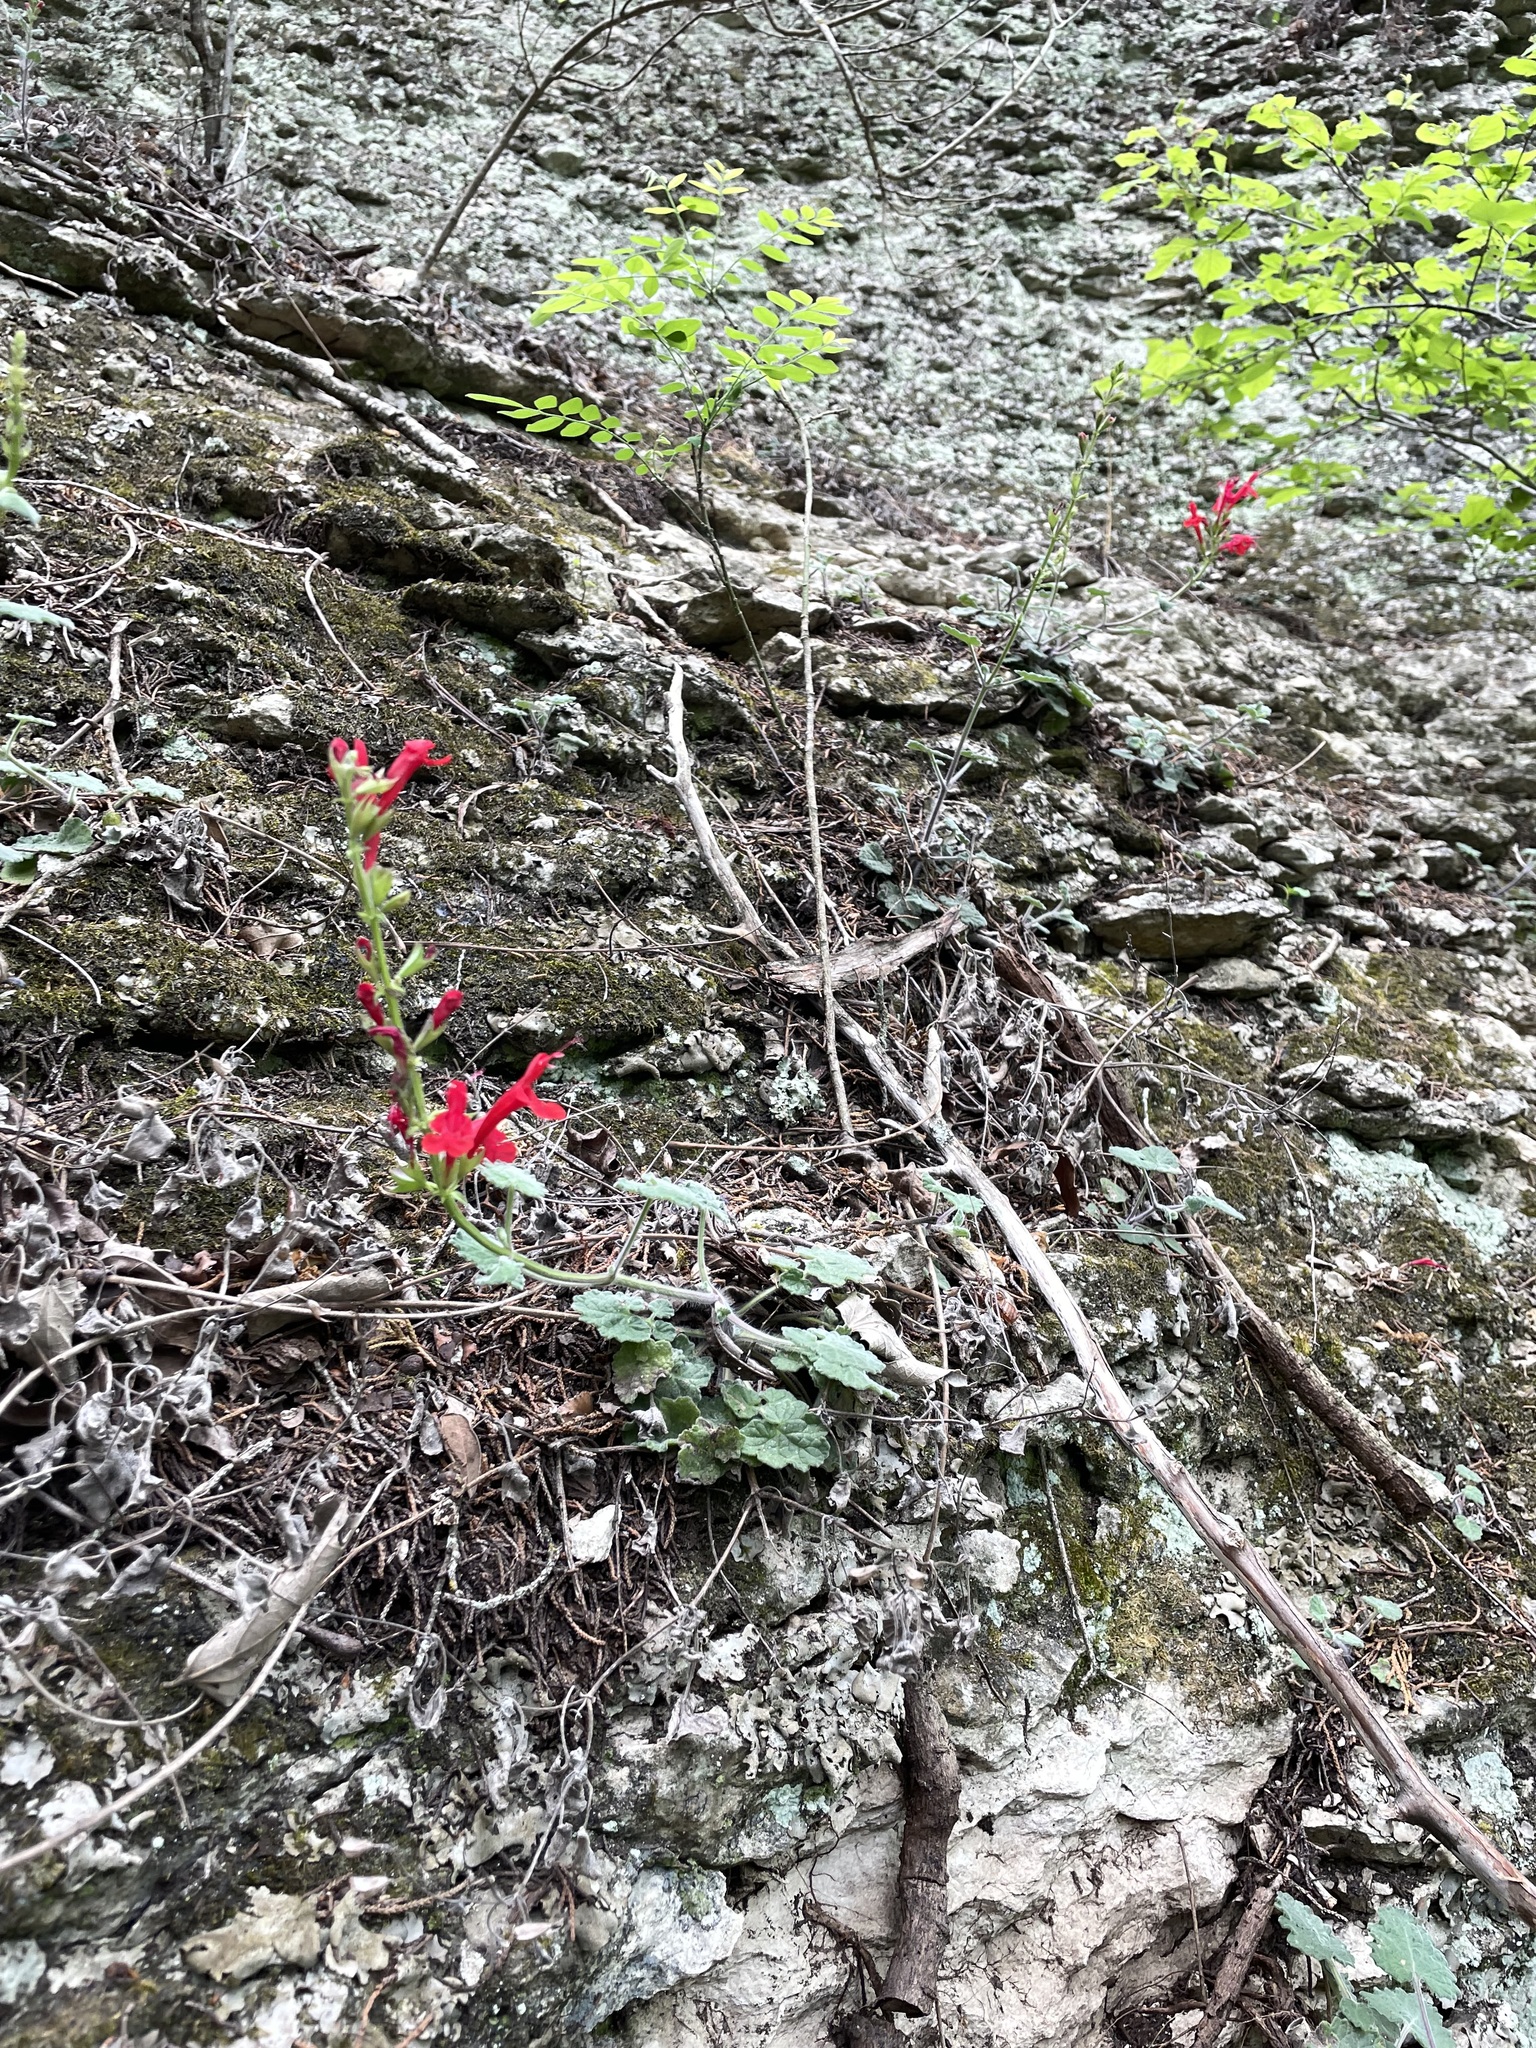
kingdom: Plantae
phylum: Tracheophyta
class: Magnoliopsida
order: Lamiales
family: Lamiaceae
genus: Salvia
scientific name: Salvia roemeriana
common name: Cedar sage
